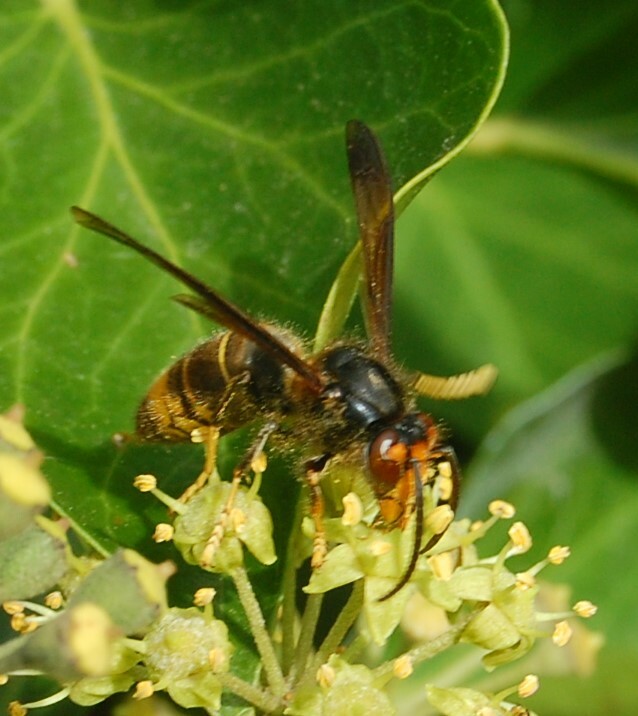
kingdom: Animalia
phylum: Arthropoda
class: Insecta
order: Hymenoptera
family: Vespidae
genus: Vespa
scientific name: Vespa velutina
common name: Asian hornet
